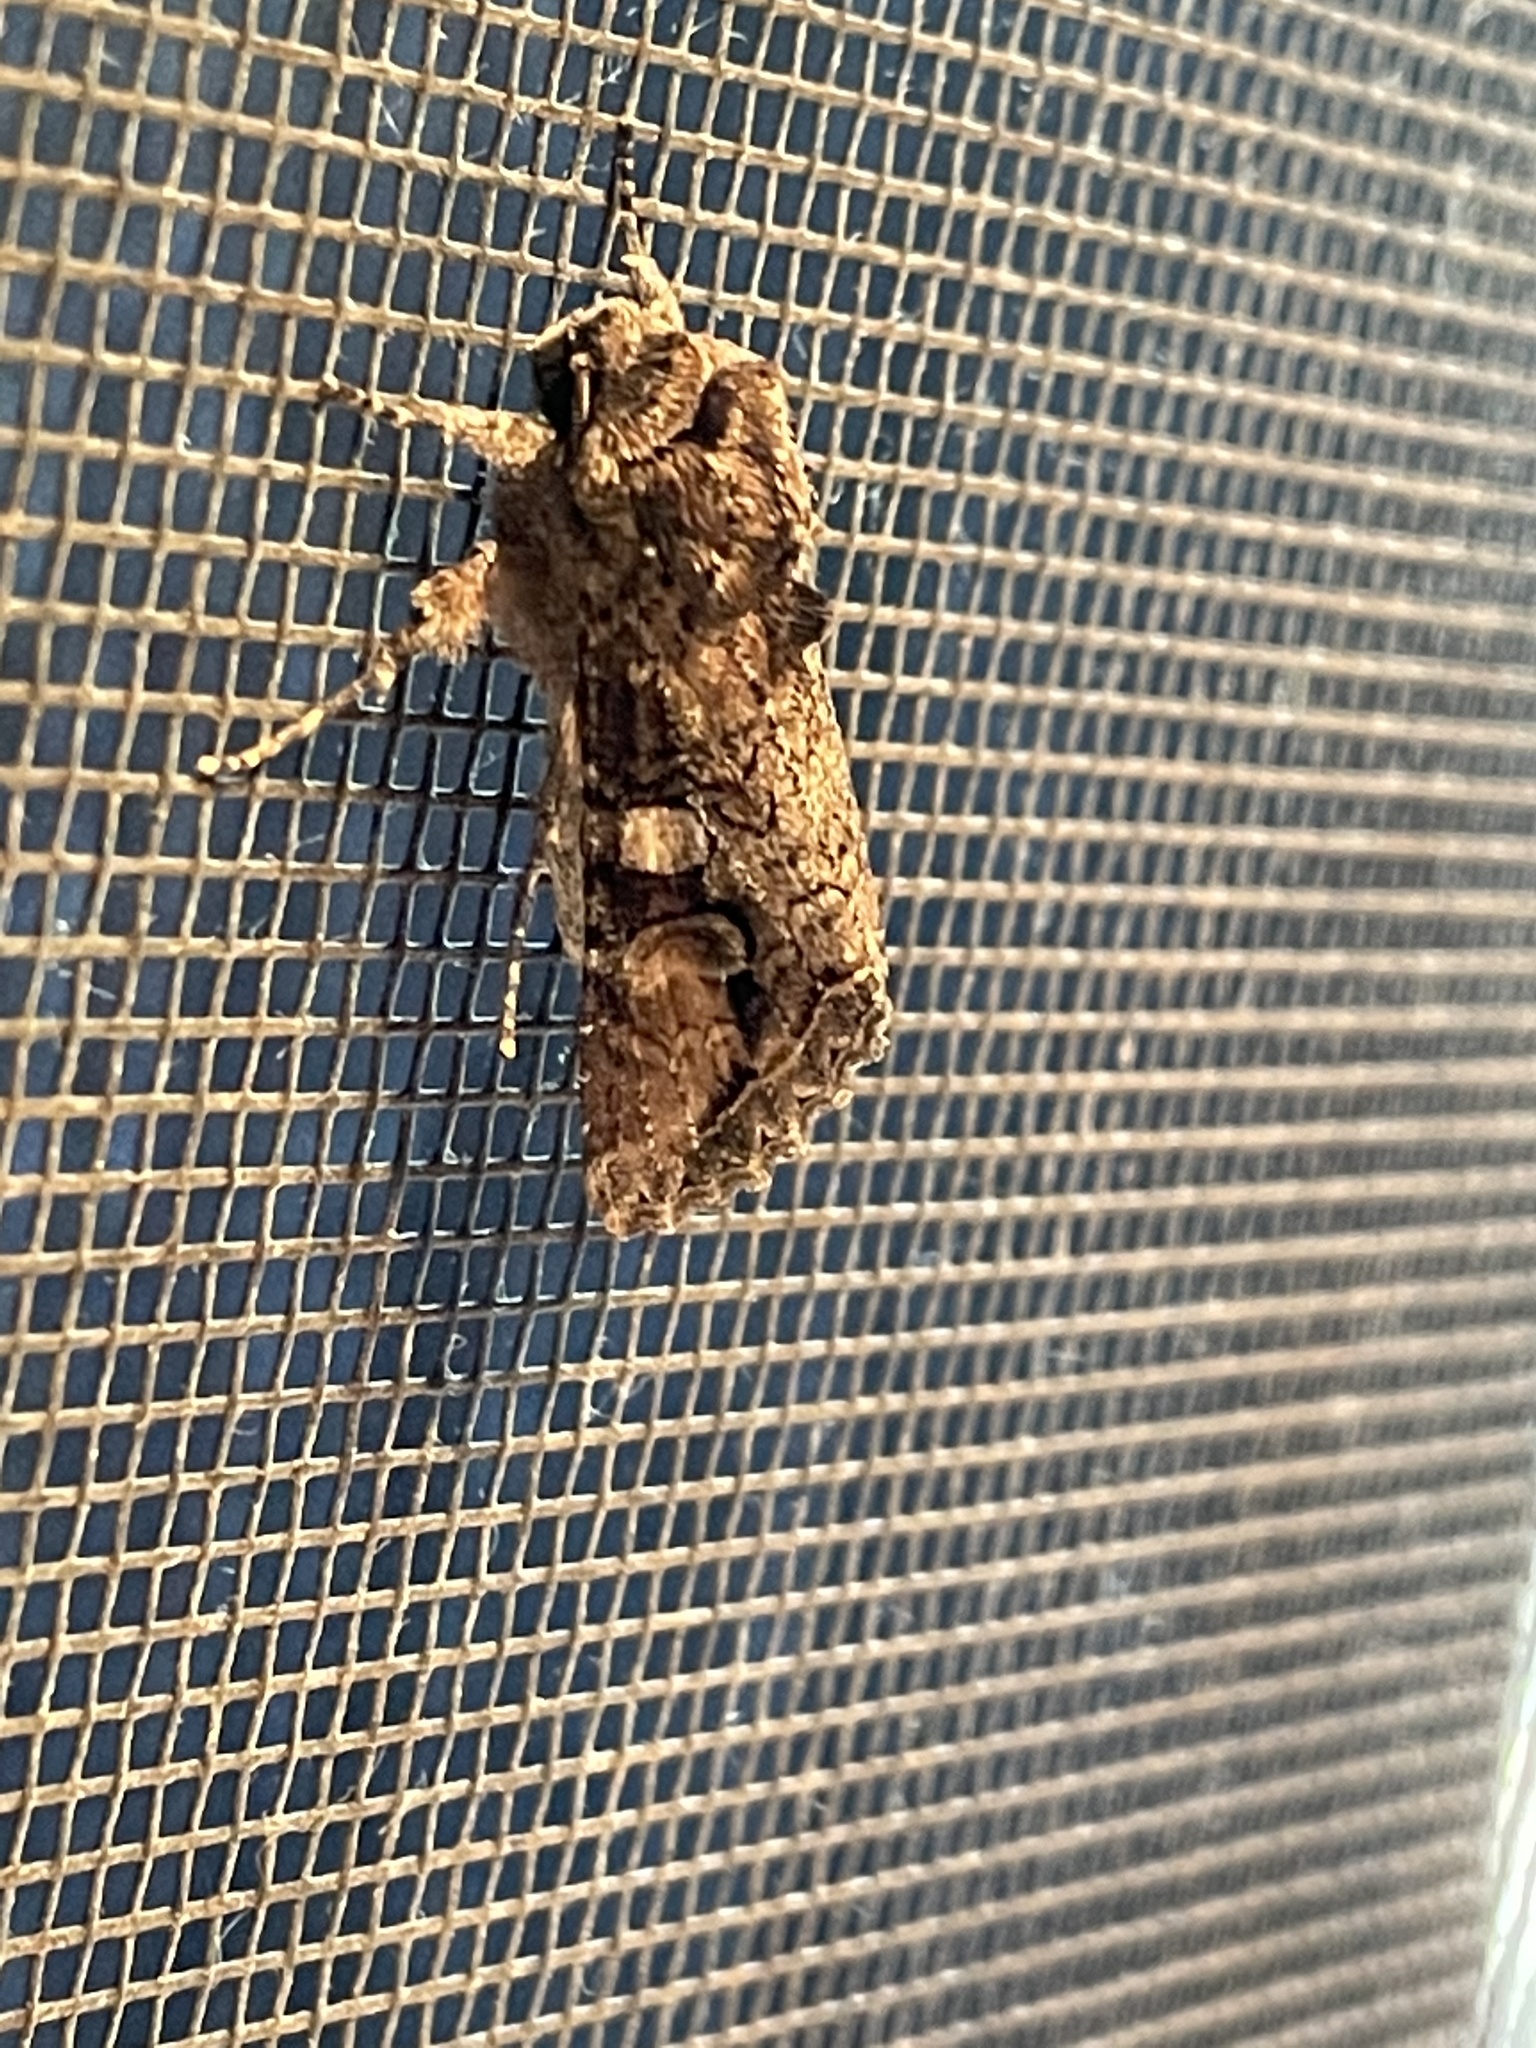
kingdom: Animalia
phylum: Arthropoda
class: Insecta
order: Lepidoptera
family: Noctuidae
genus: Egira
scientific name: Egira perlubens
